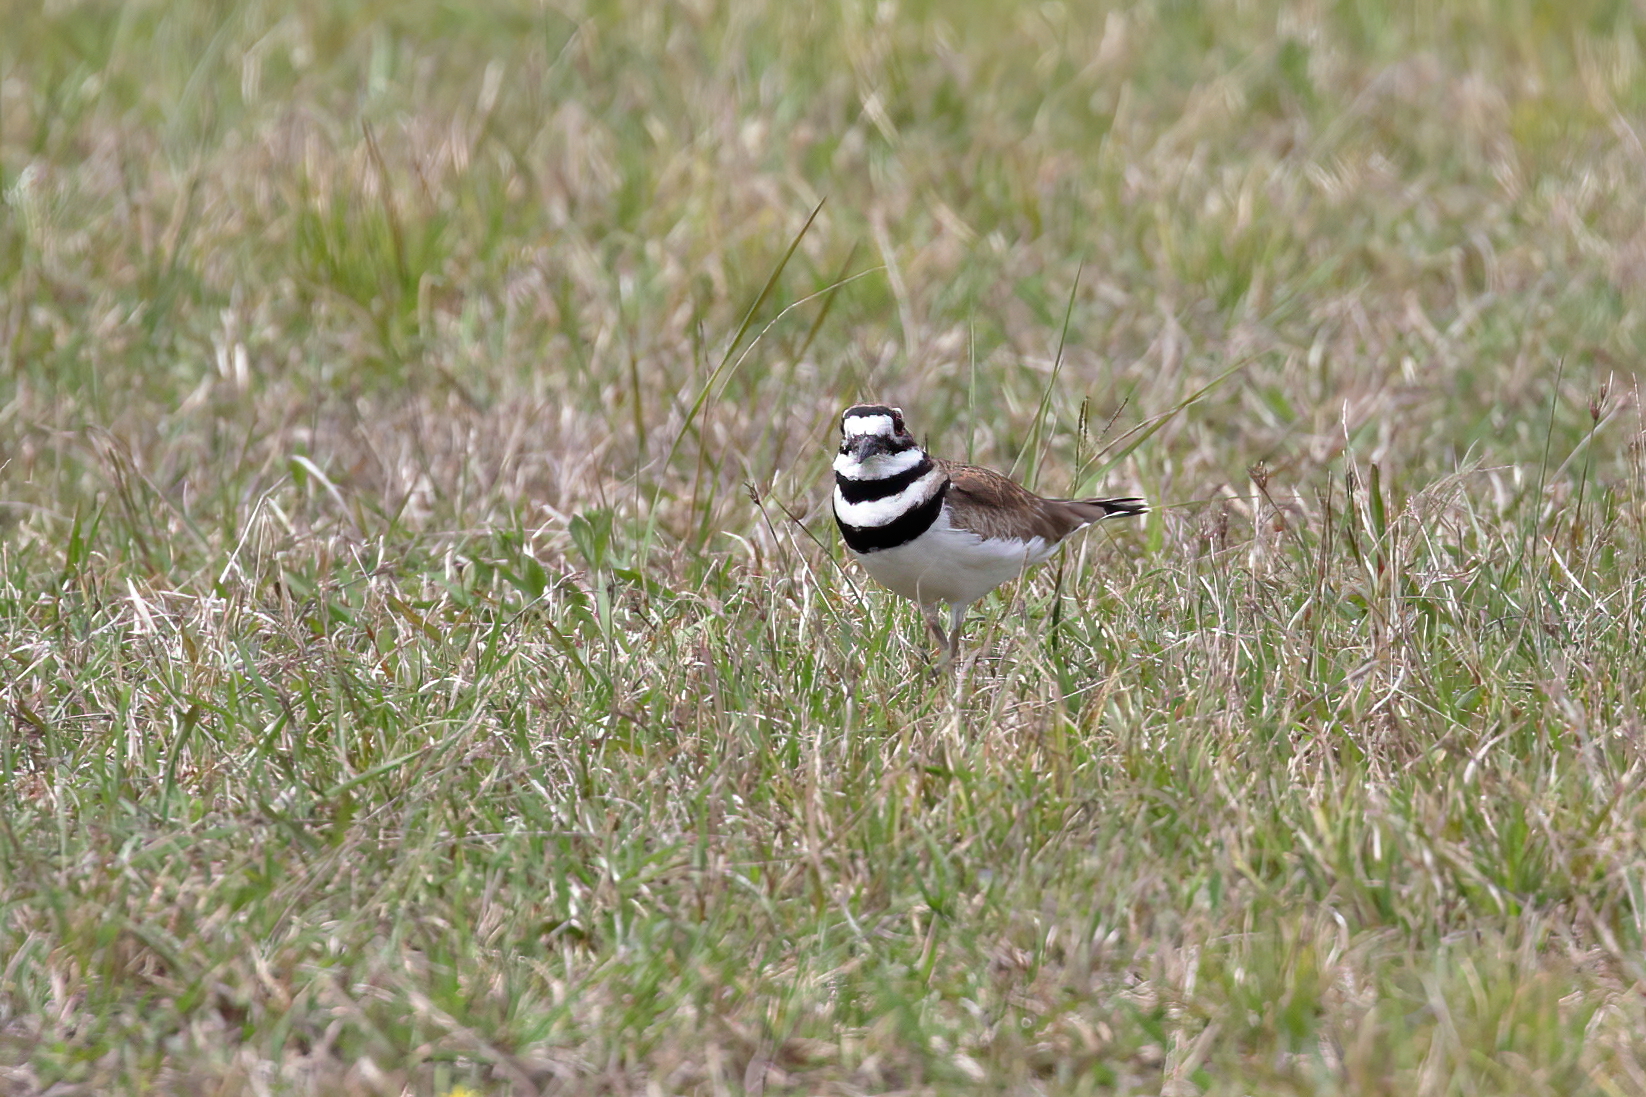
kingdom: Animalia
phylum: Chordata
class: Aves
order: Charadriiformes
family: Charadriidae
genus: Charadrius
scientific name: Charadrius vociferus
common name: Killdeer
